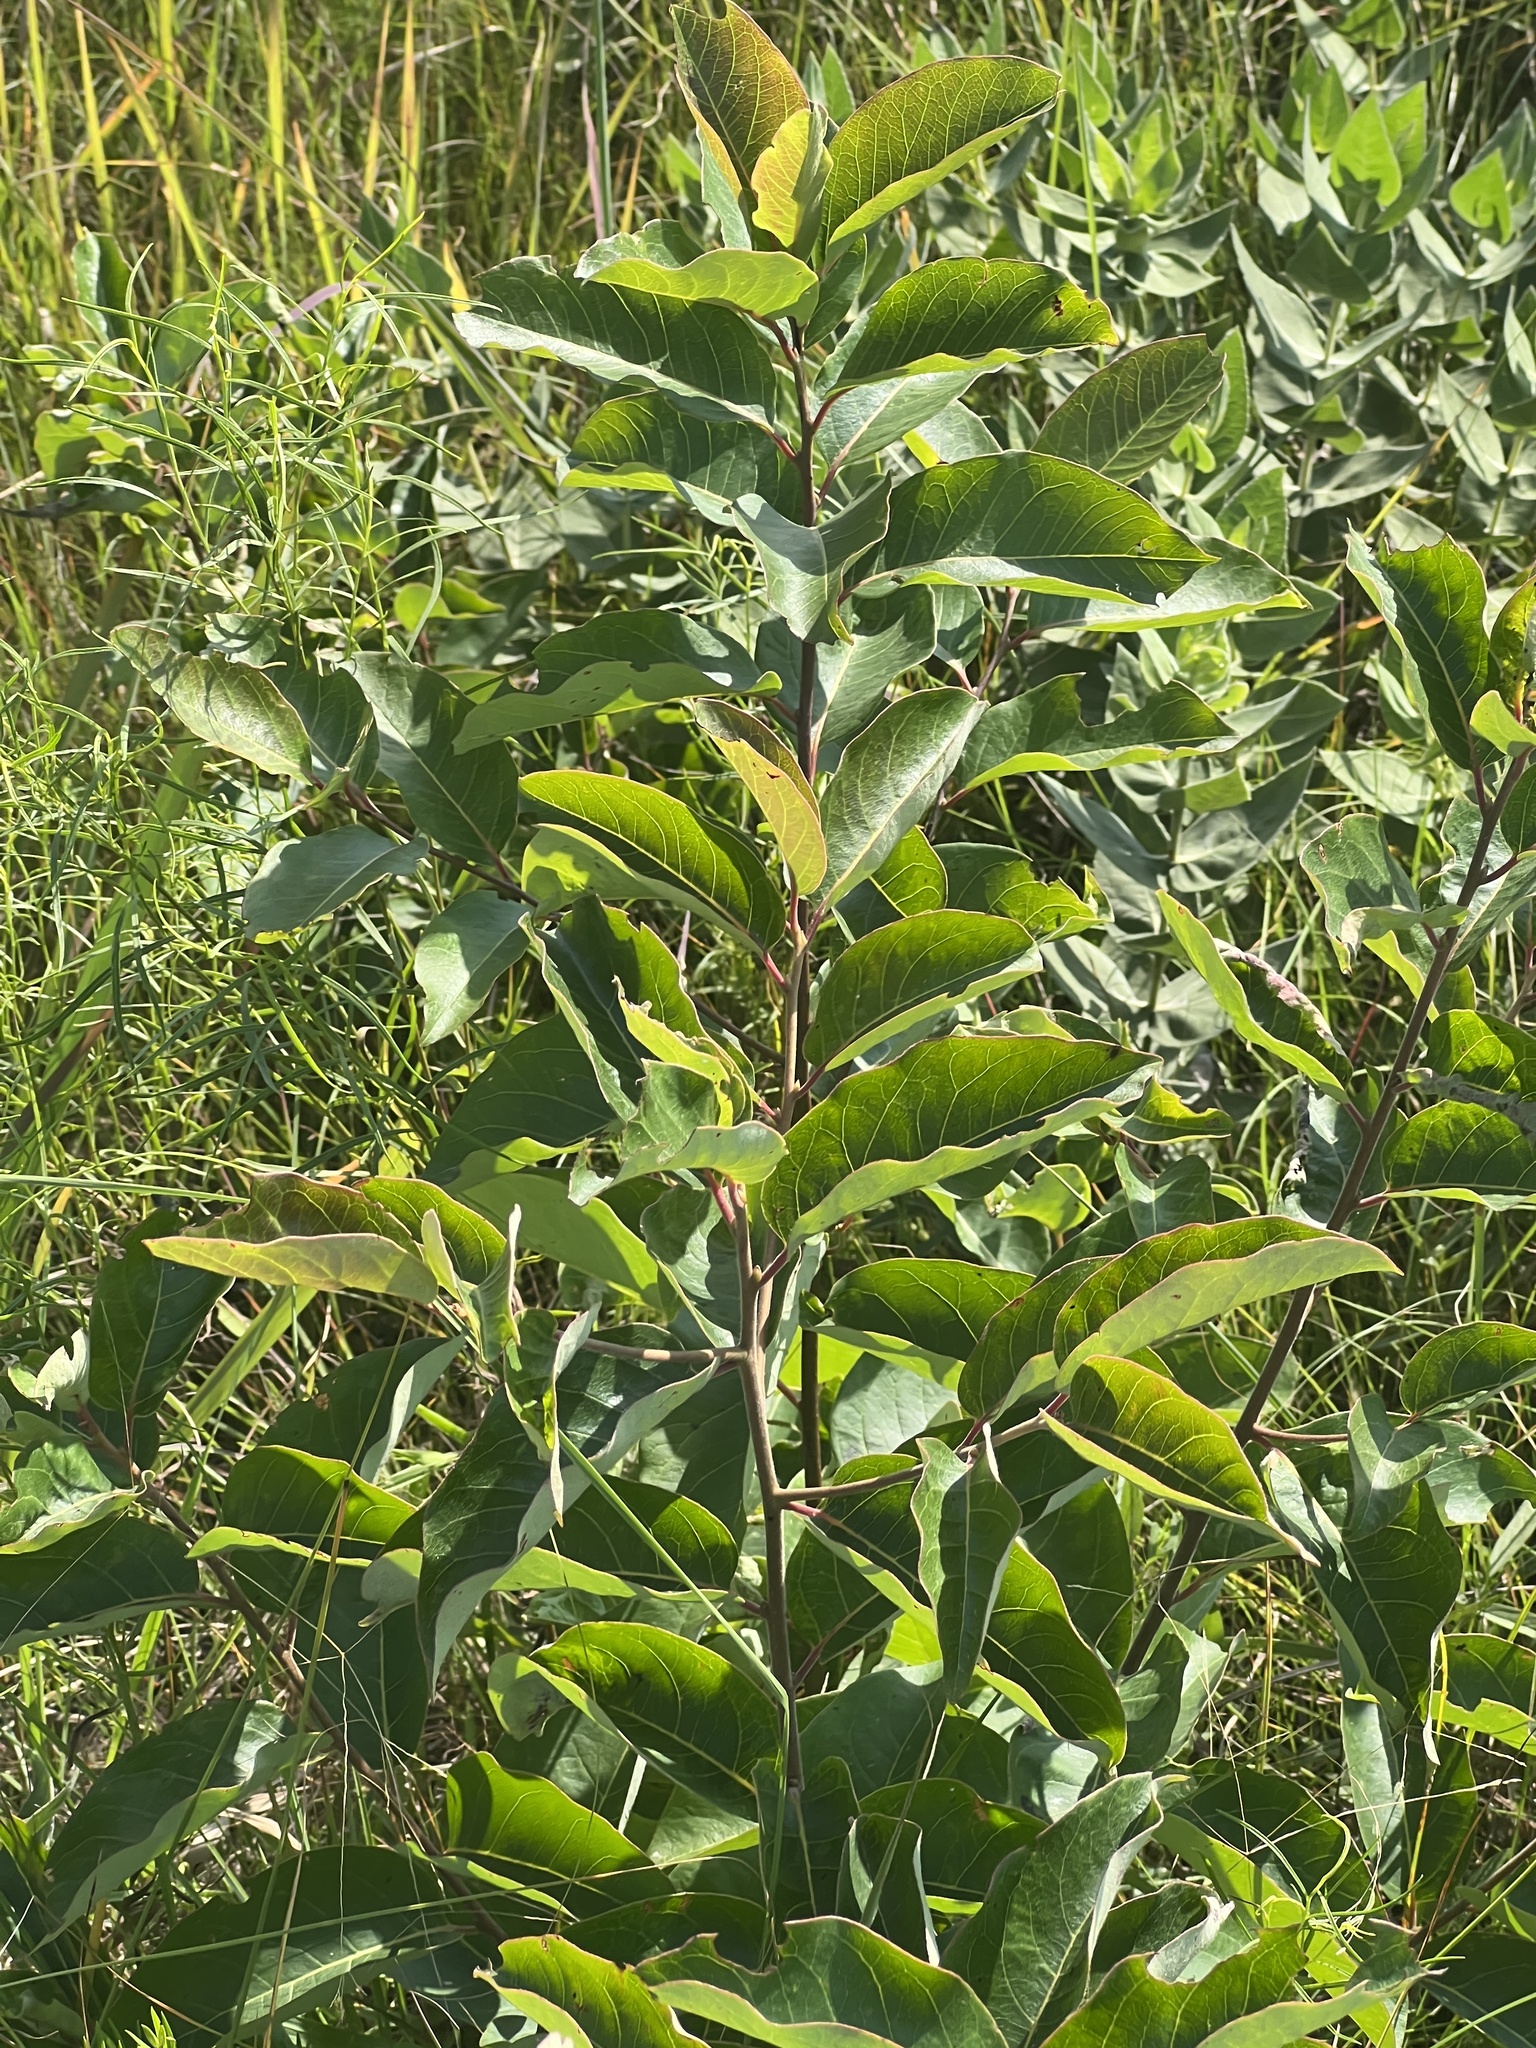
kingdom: Plantae
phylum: Tracheophyta
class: Magnoliopsida
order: Ericales
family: Ebenaceae
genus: Diospyros
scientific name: Diospyros virginiana
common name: Persimmon
